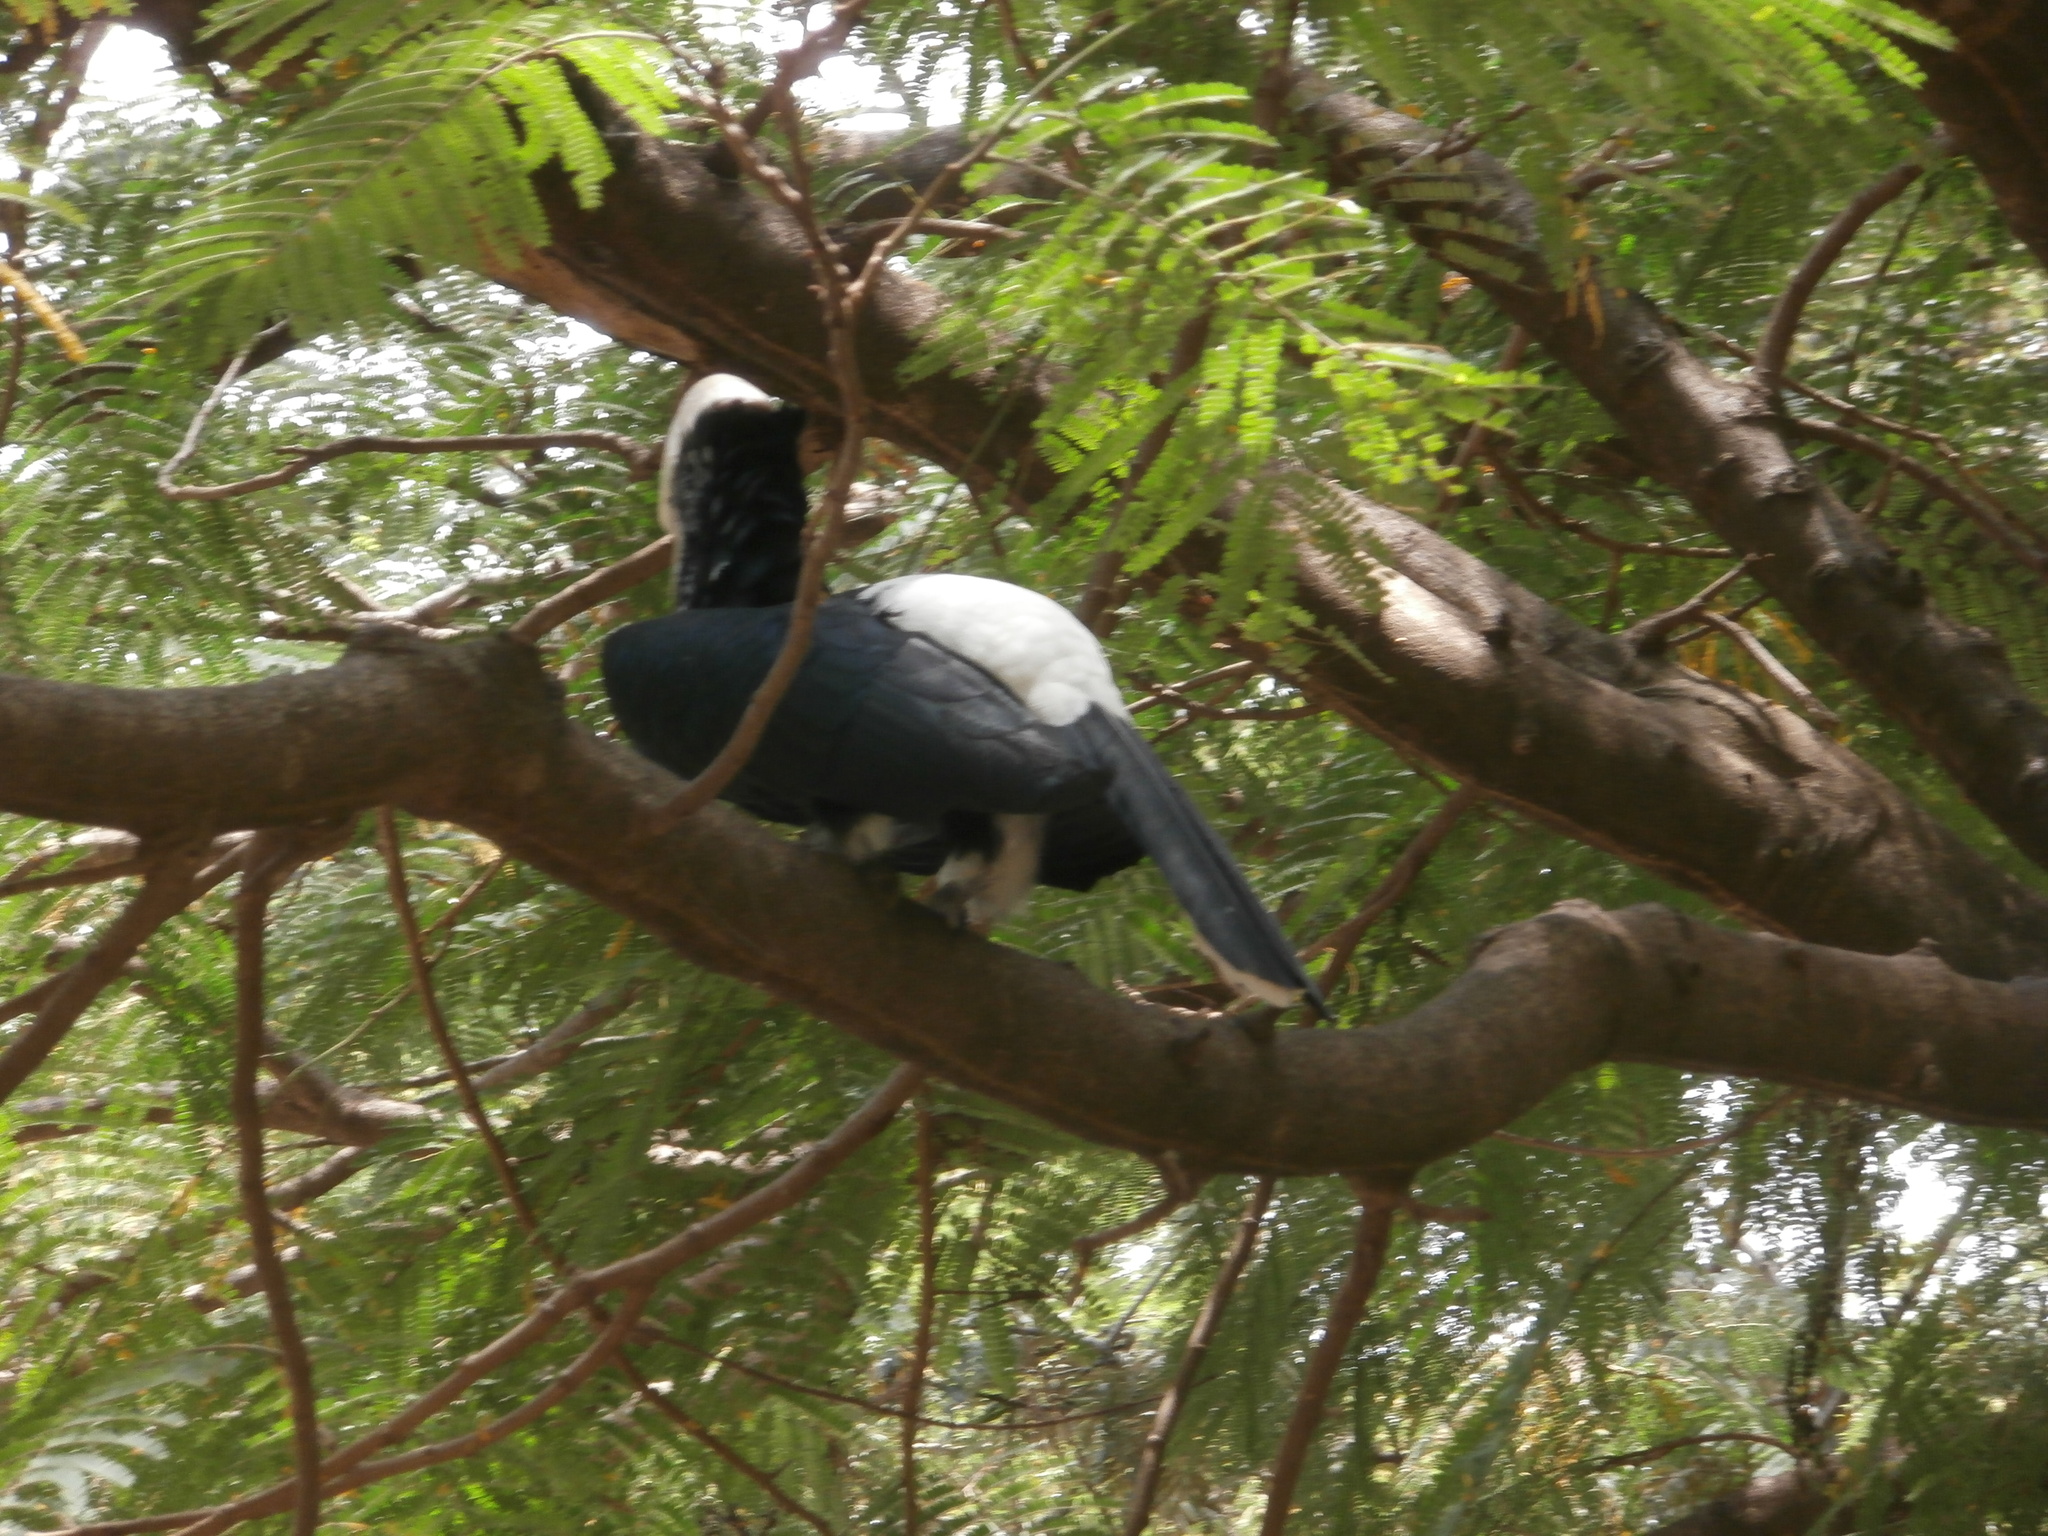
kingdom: Animalia
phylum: Chordata
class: Aves
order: Bucerotiformes
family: Bucerotidae
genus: Bycanistes
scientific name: Bycanistes brevis
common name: Silvery-cheeked hornbill
